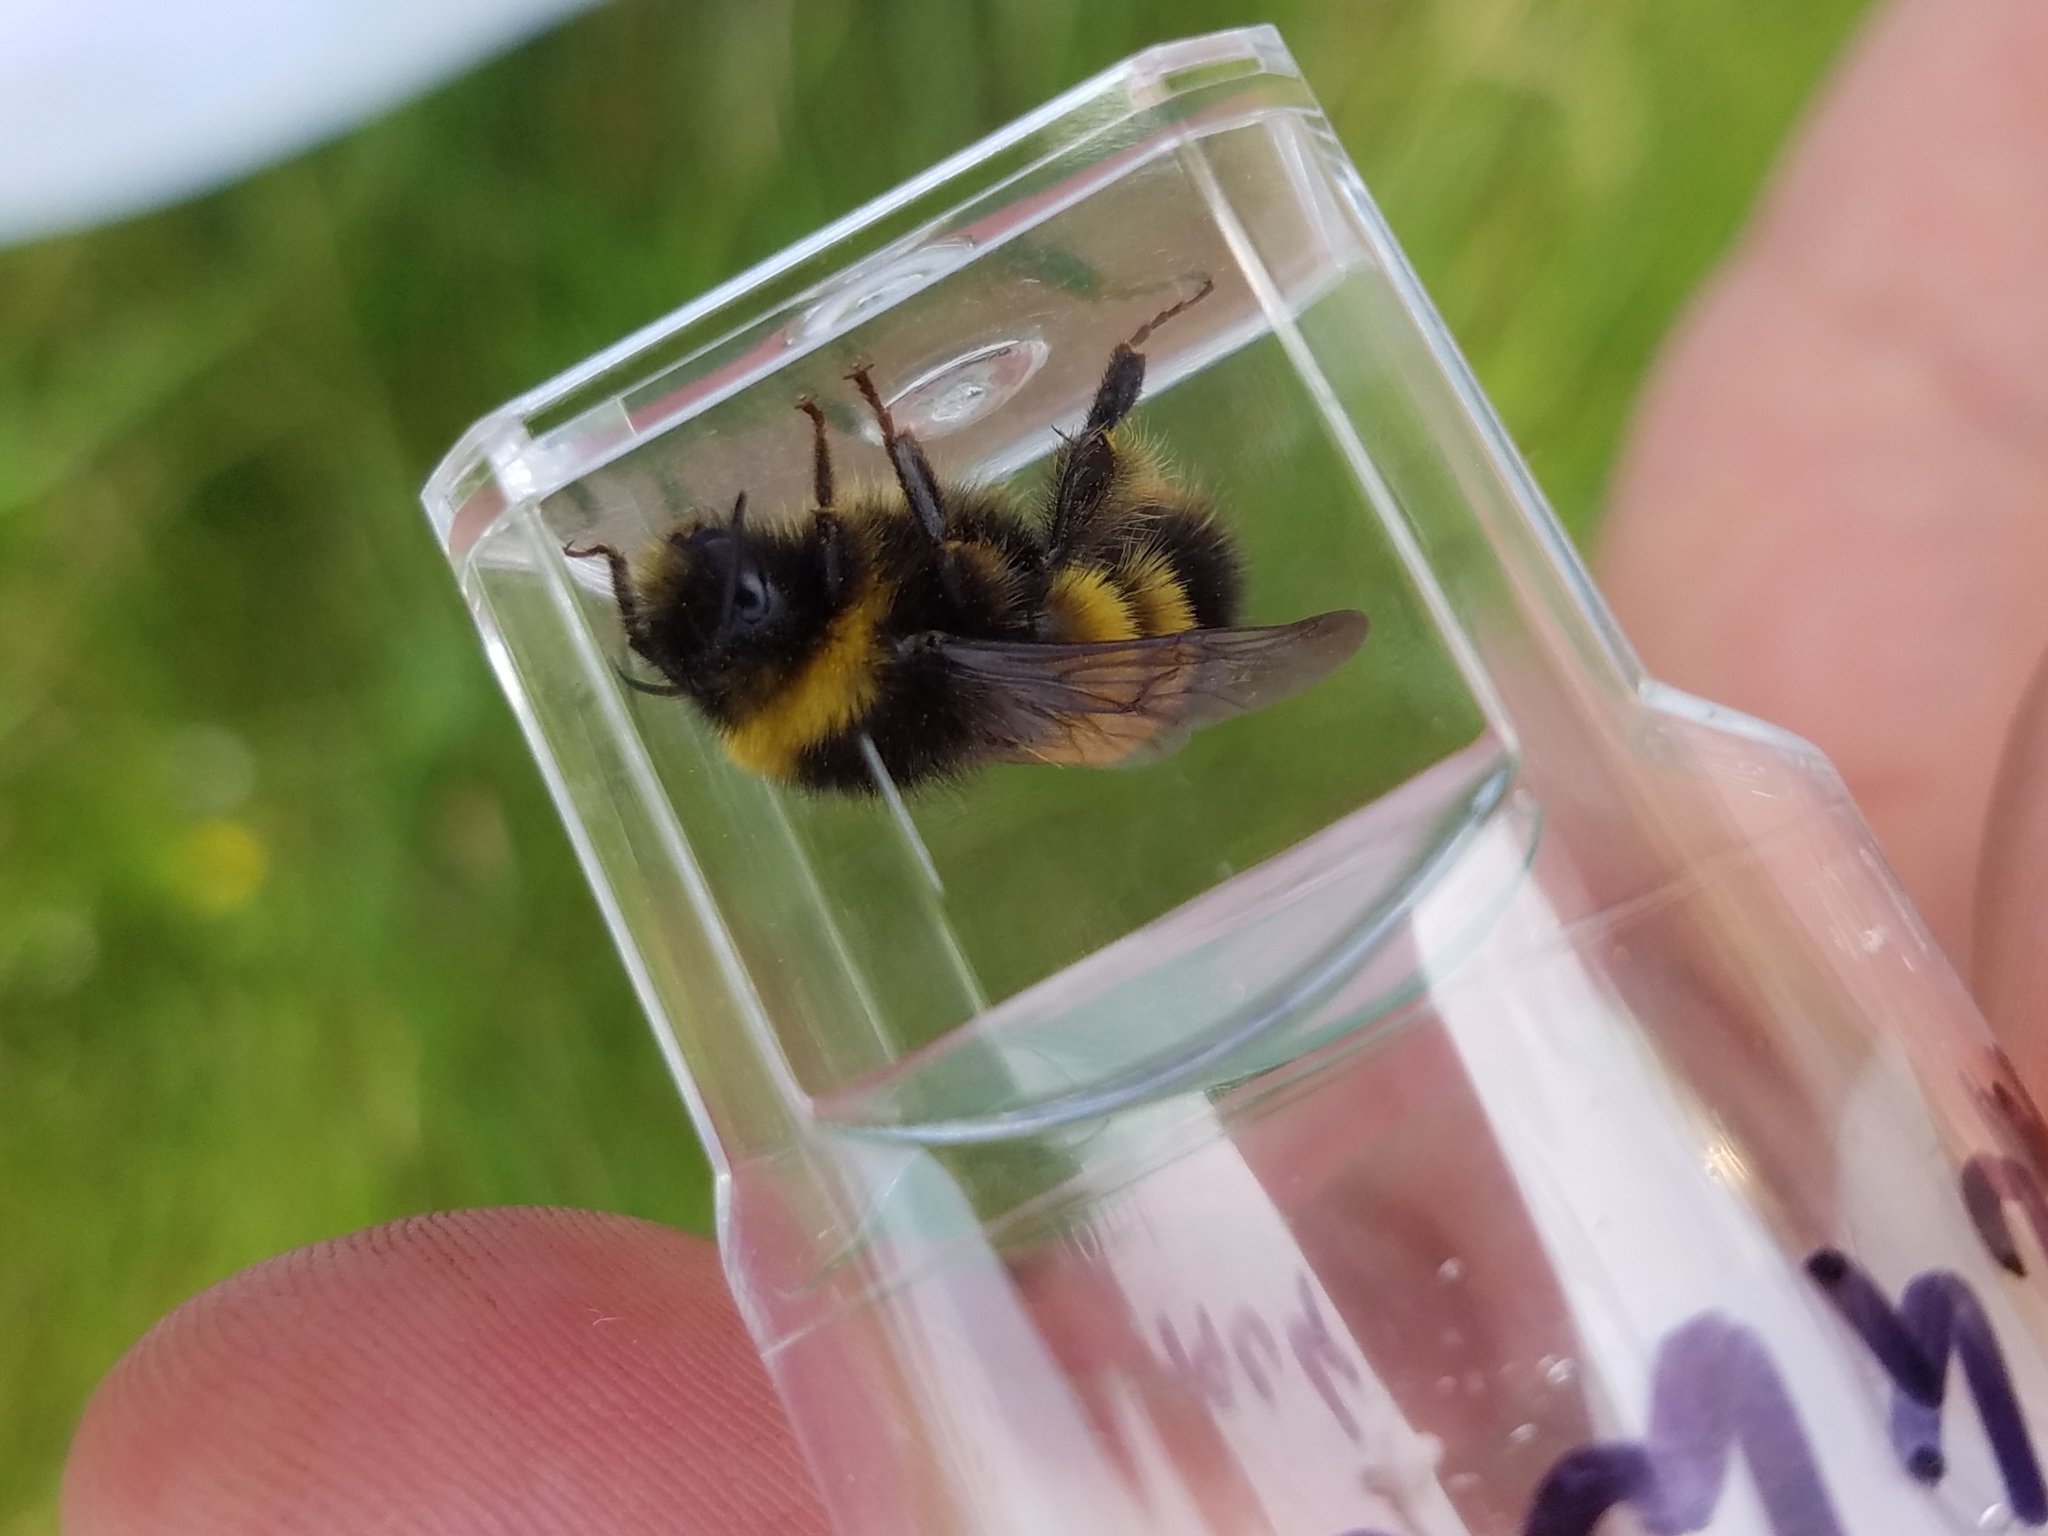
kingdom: Animalia
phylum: Arthropoda
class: Insecta
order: Hymenoptera
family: Apidae
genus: Bombus
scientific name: Bombus terricola
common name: Yellow-banded bumble bee
